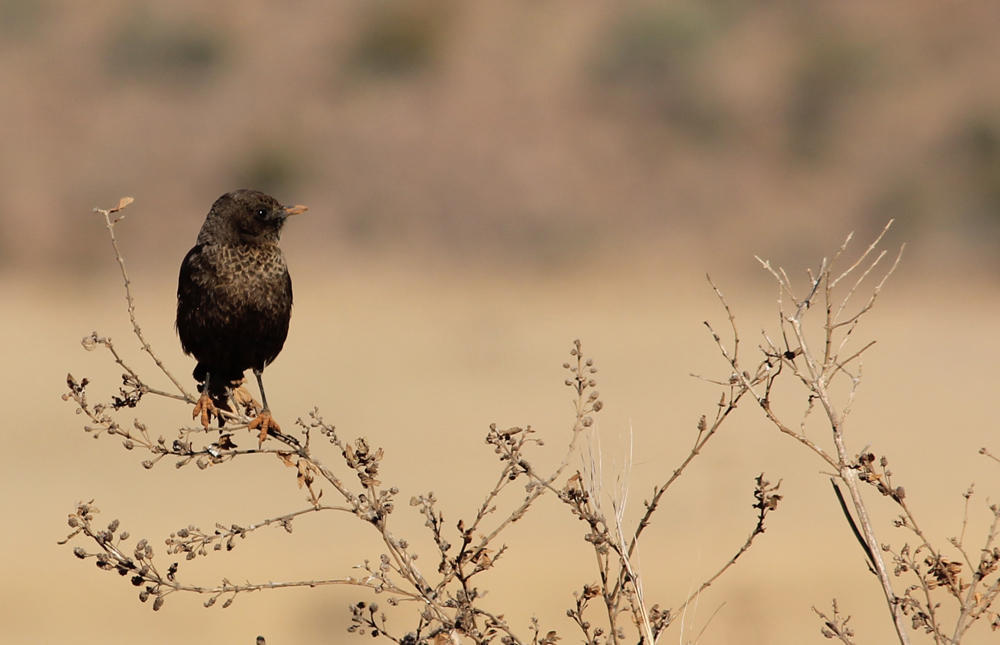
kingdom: Animalia
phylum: Chordata
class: Aves
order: Passeriformes
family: Muscicapidae
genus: Myrmecocichla
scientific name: Myrmecocichla formicivora
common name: Ant-eating chat
